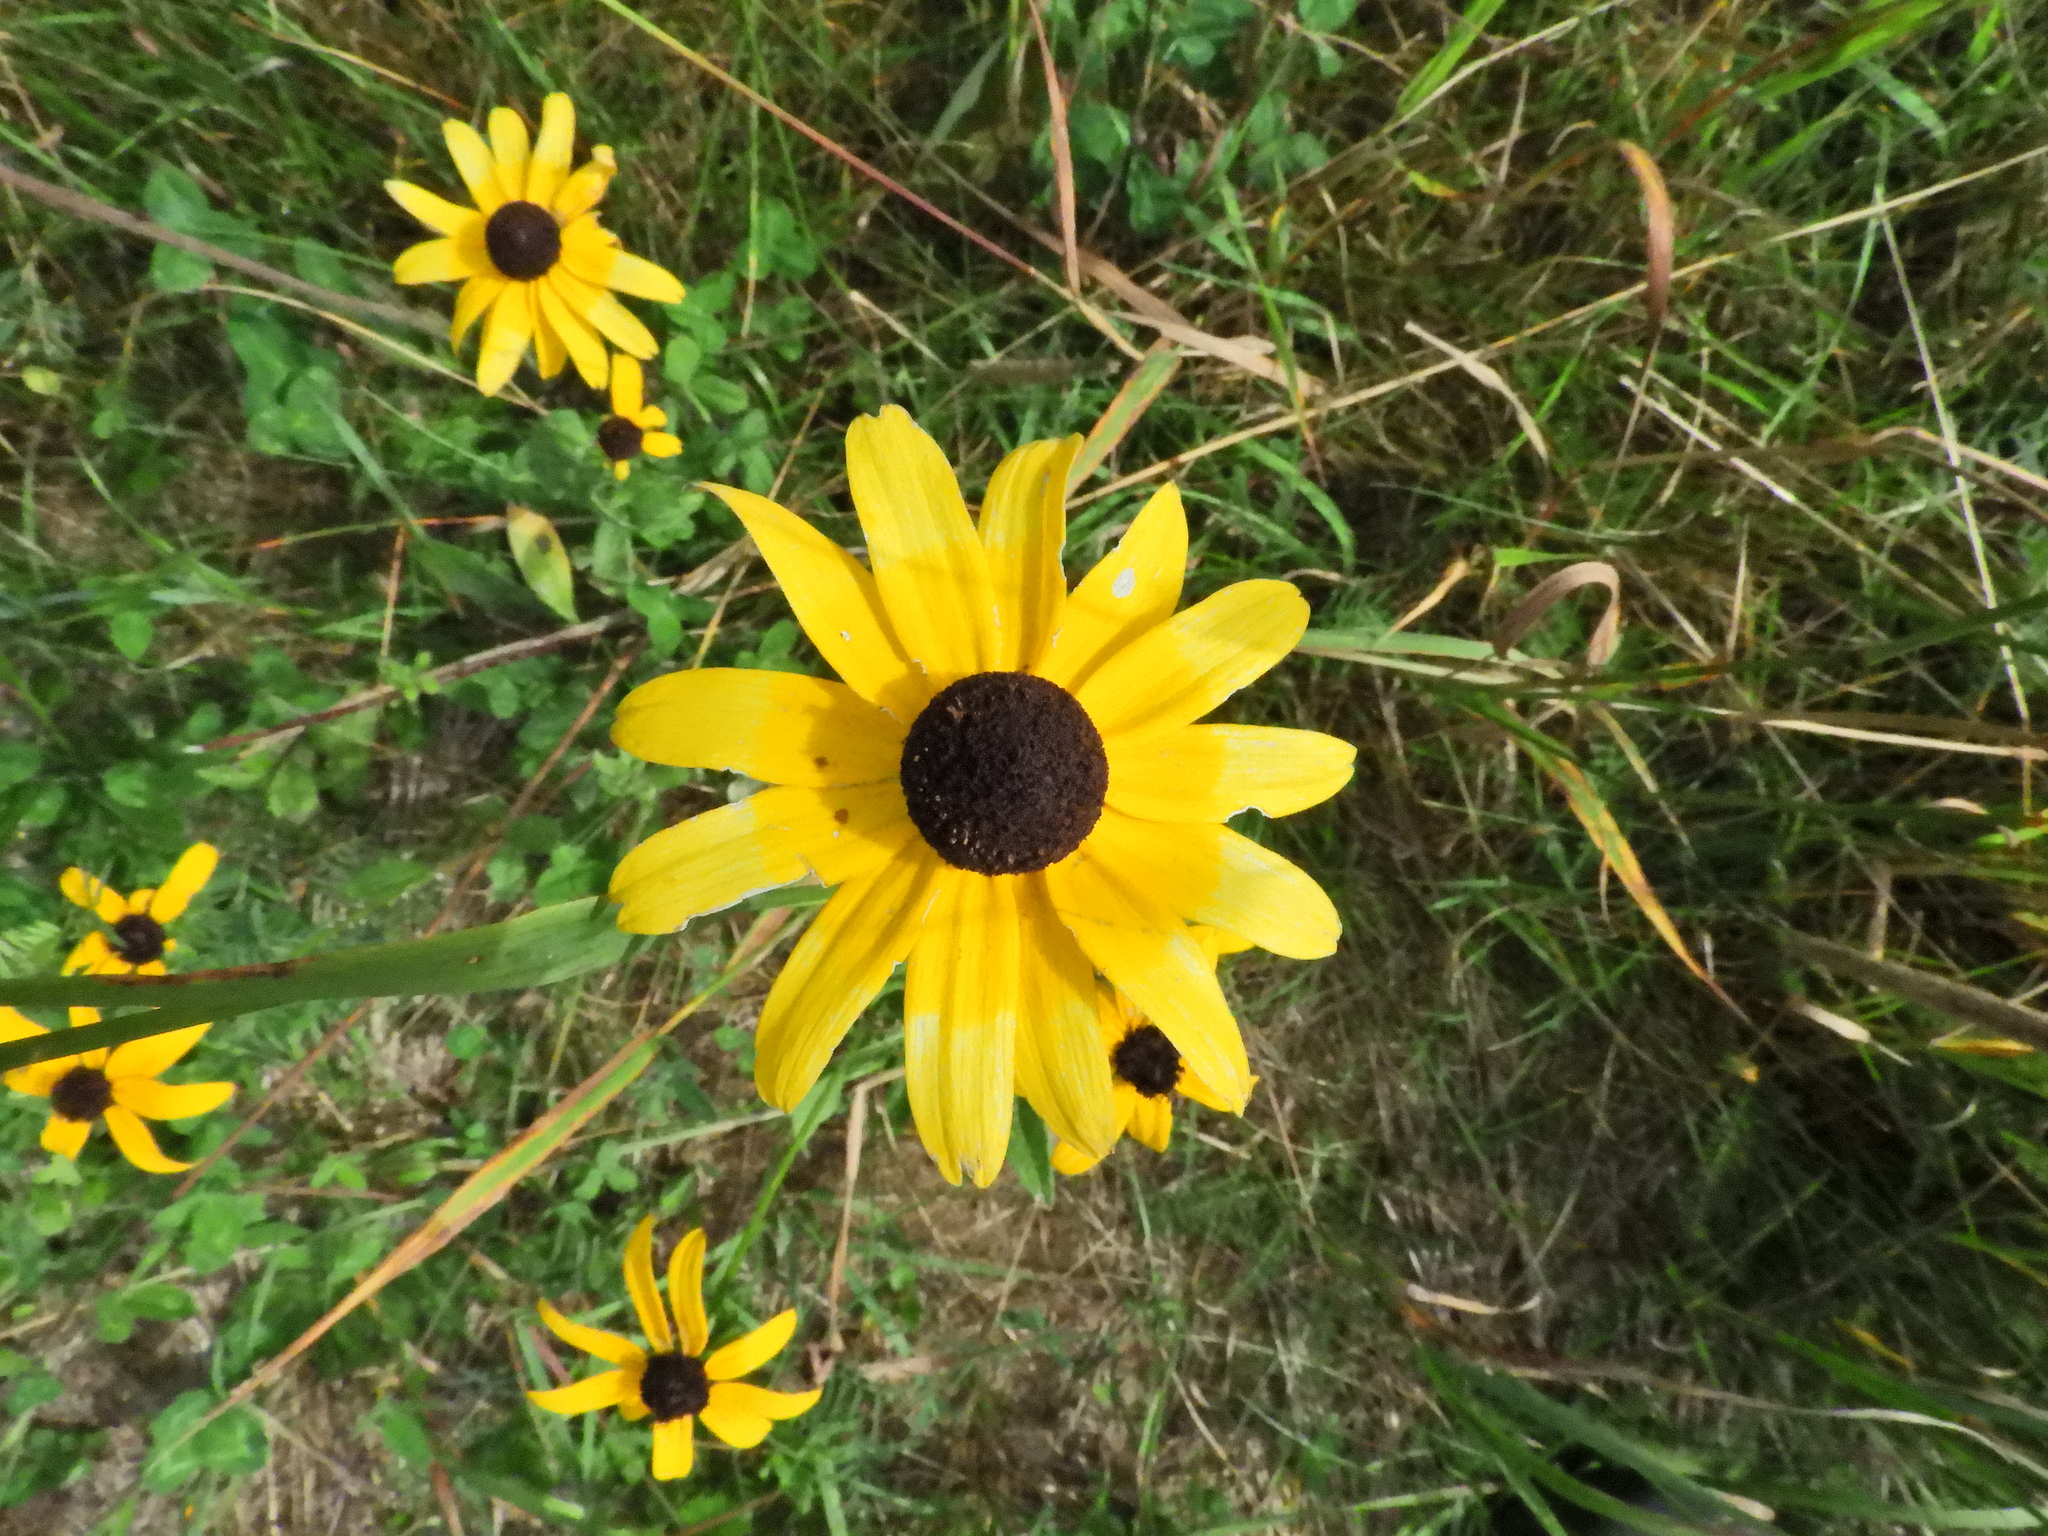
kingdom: Plantae
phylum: Tracheophyta
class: Magnoliopsida
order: Asterales
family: Asteraceae
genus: Rudbeckia
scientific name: Rudbeckia hirta
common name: Black-eyed-susan
